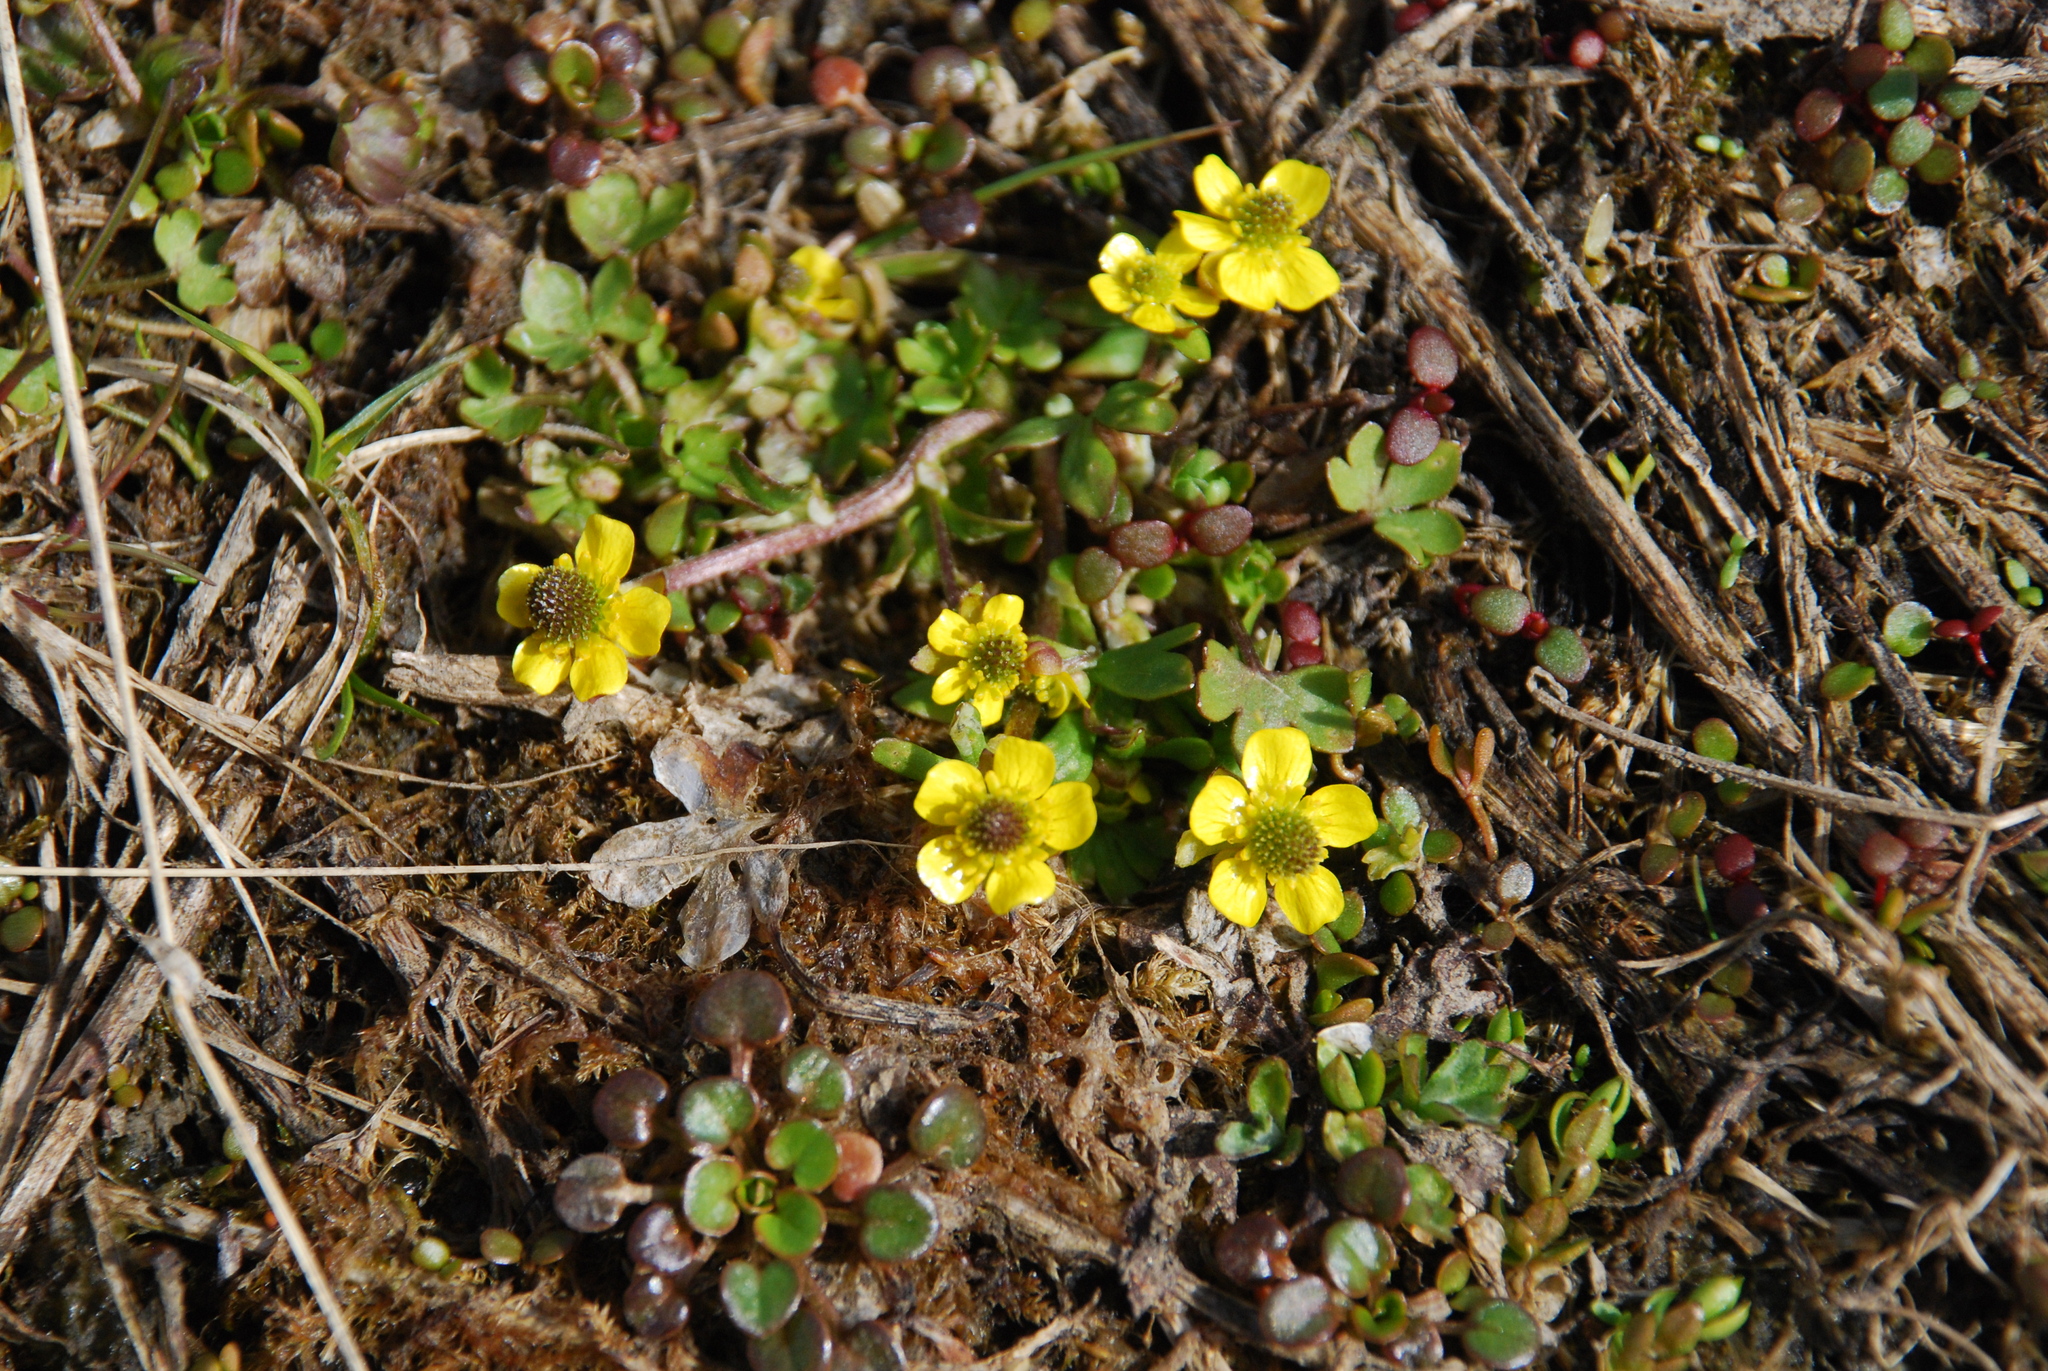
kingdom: Plantae
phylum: Tracheophyta
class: Magnoliopsida
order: Ranunculales
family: Ranunculaceae
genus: Ranunculus
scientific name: Ranunculus pygmaeus
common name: Dwarf buttercup
